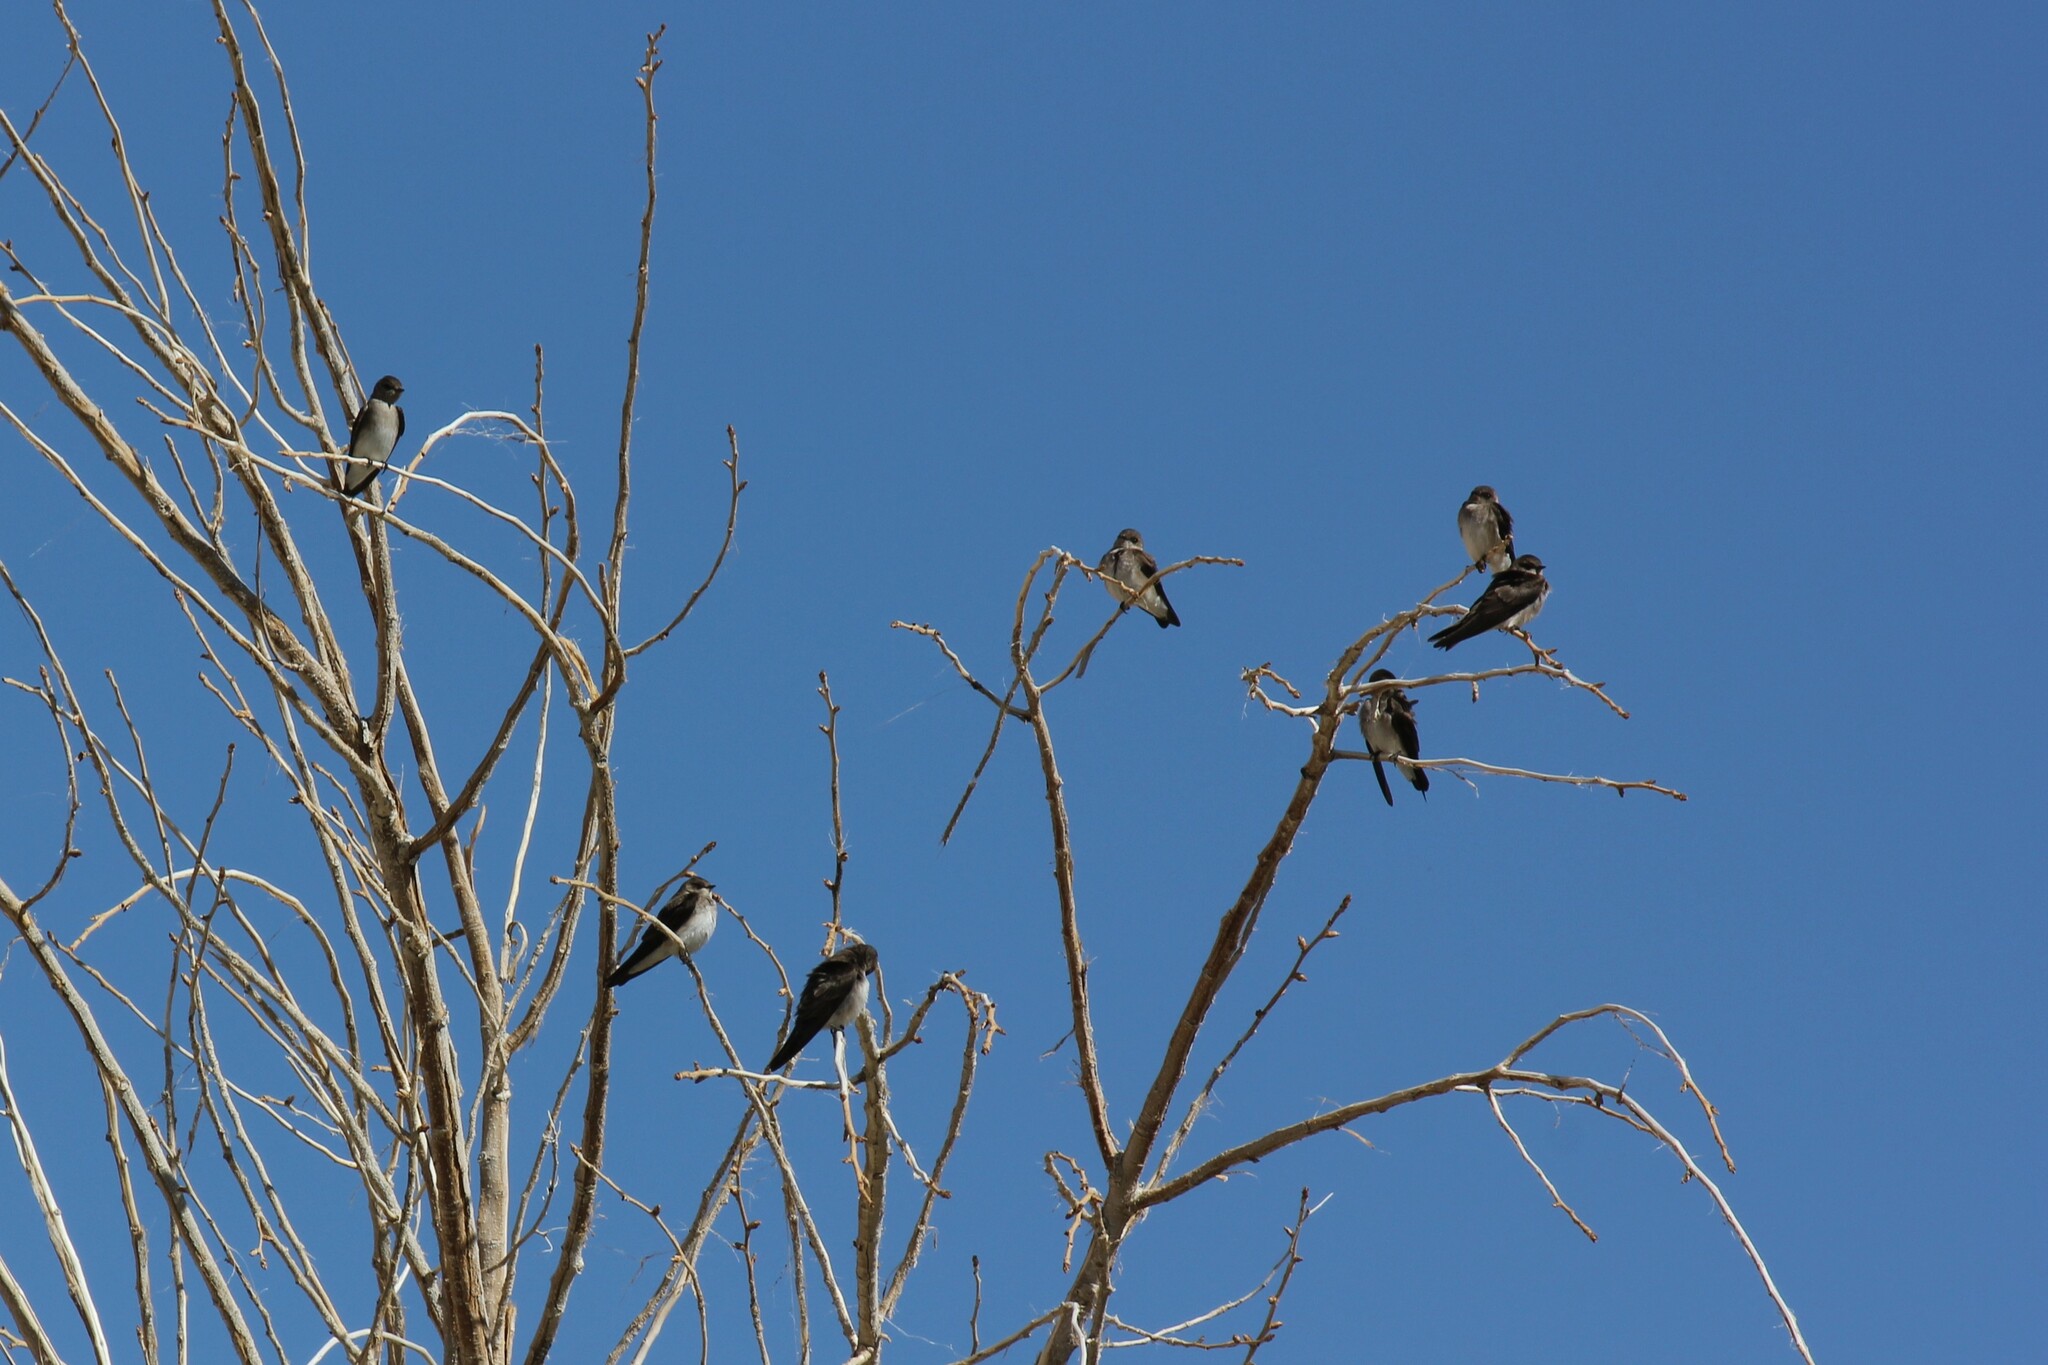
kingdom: Animalia
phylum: Chordata
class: Aves
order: Passeriformes
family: Hirundinidae
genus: Stelgidopteryx
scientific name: Stelgidopteryx serripennis
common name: Northern rough-winged swallow
